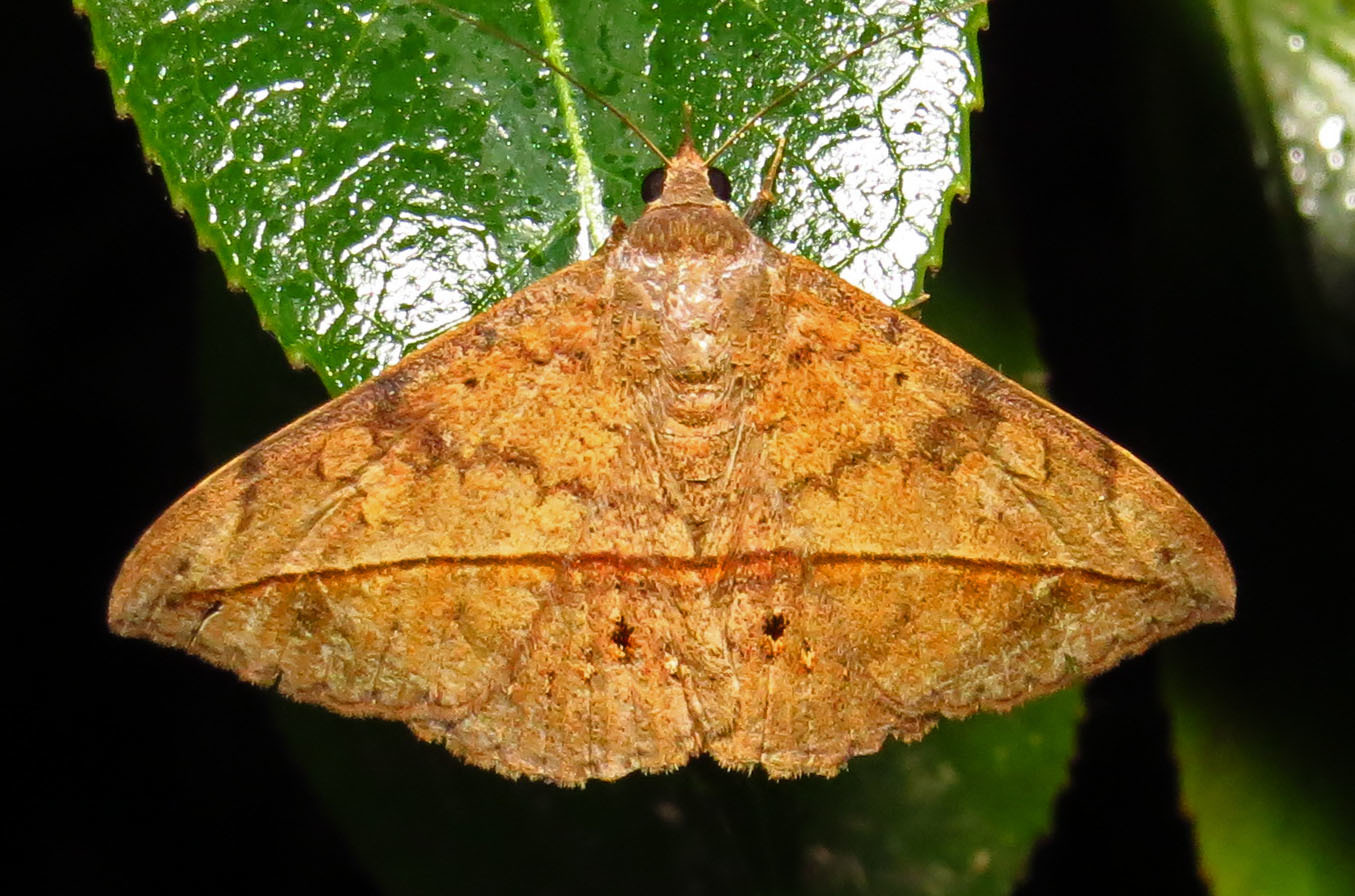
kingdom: Animalia
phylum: Arthropoda
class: Insecta
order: Lepidoptera
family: Erebidae
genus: Anticarsia
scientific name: Anticarsia gemmatalis
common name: Cutworm moth
